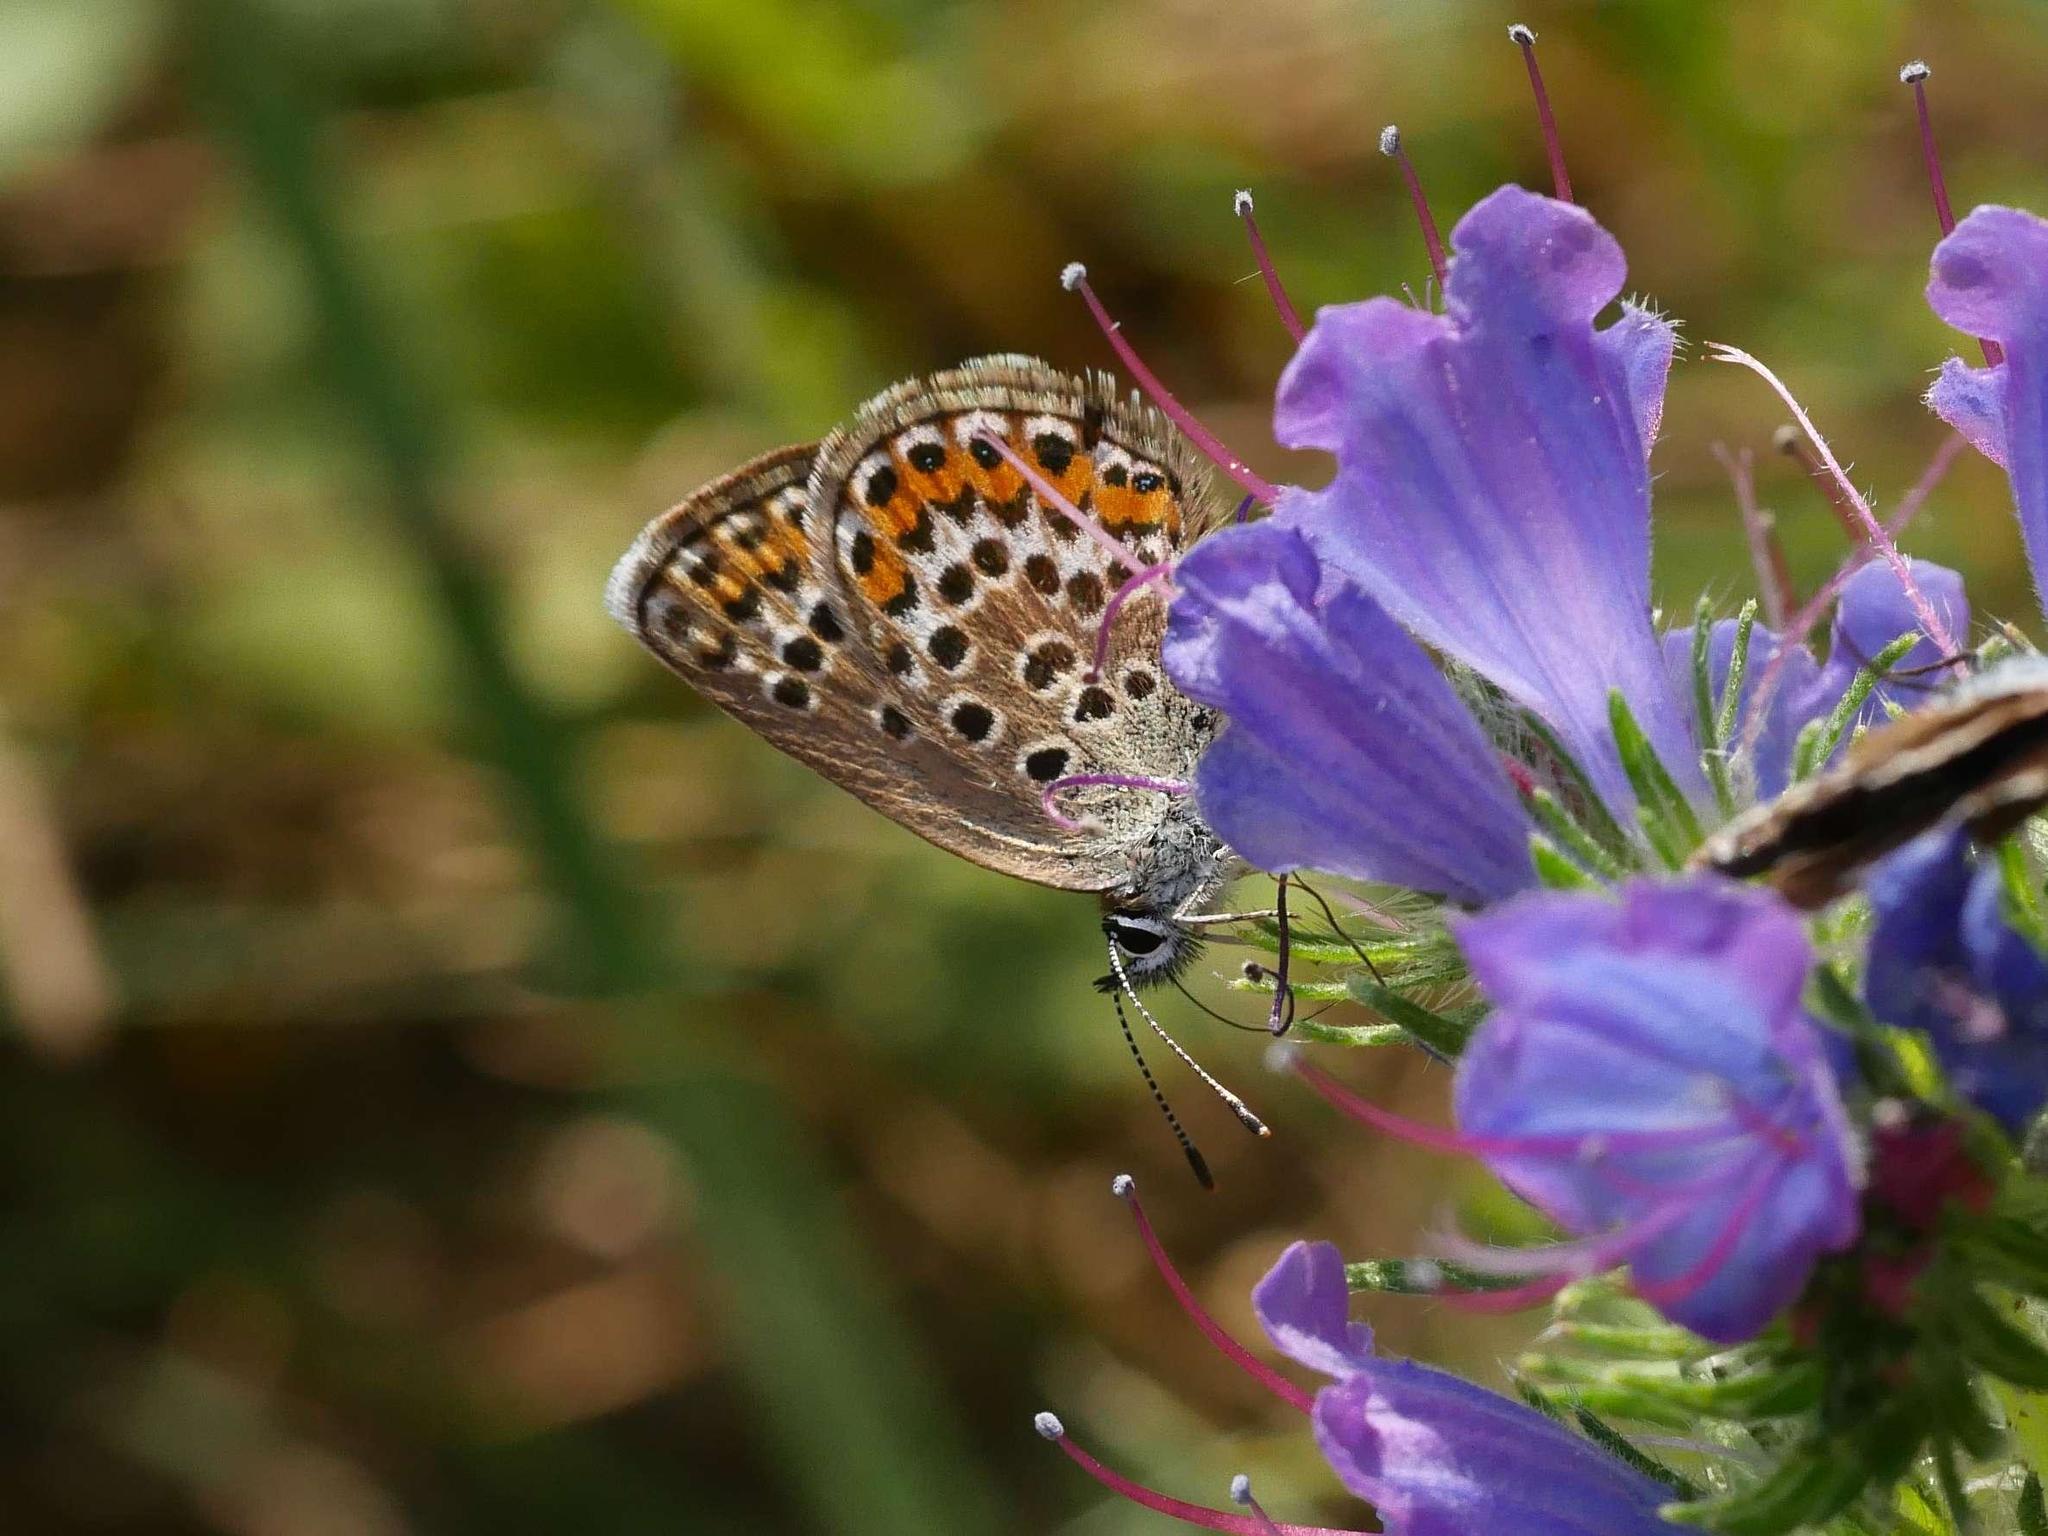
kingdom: Animalia
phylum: Arthropoda
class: Insecta
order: Lepidoptera
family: Lycaenidae
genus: Plebejus
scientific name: Plebejus argus
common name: Silver-studded blue
